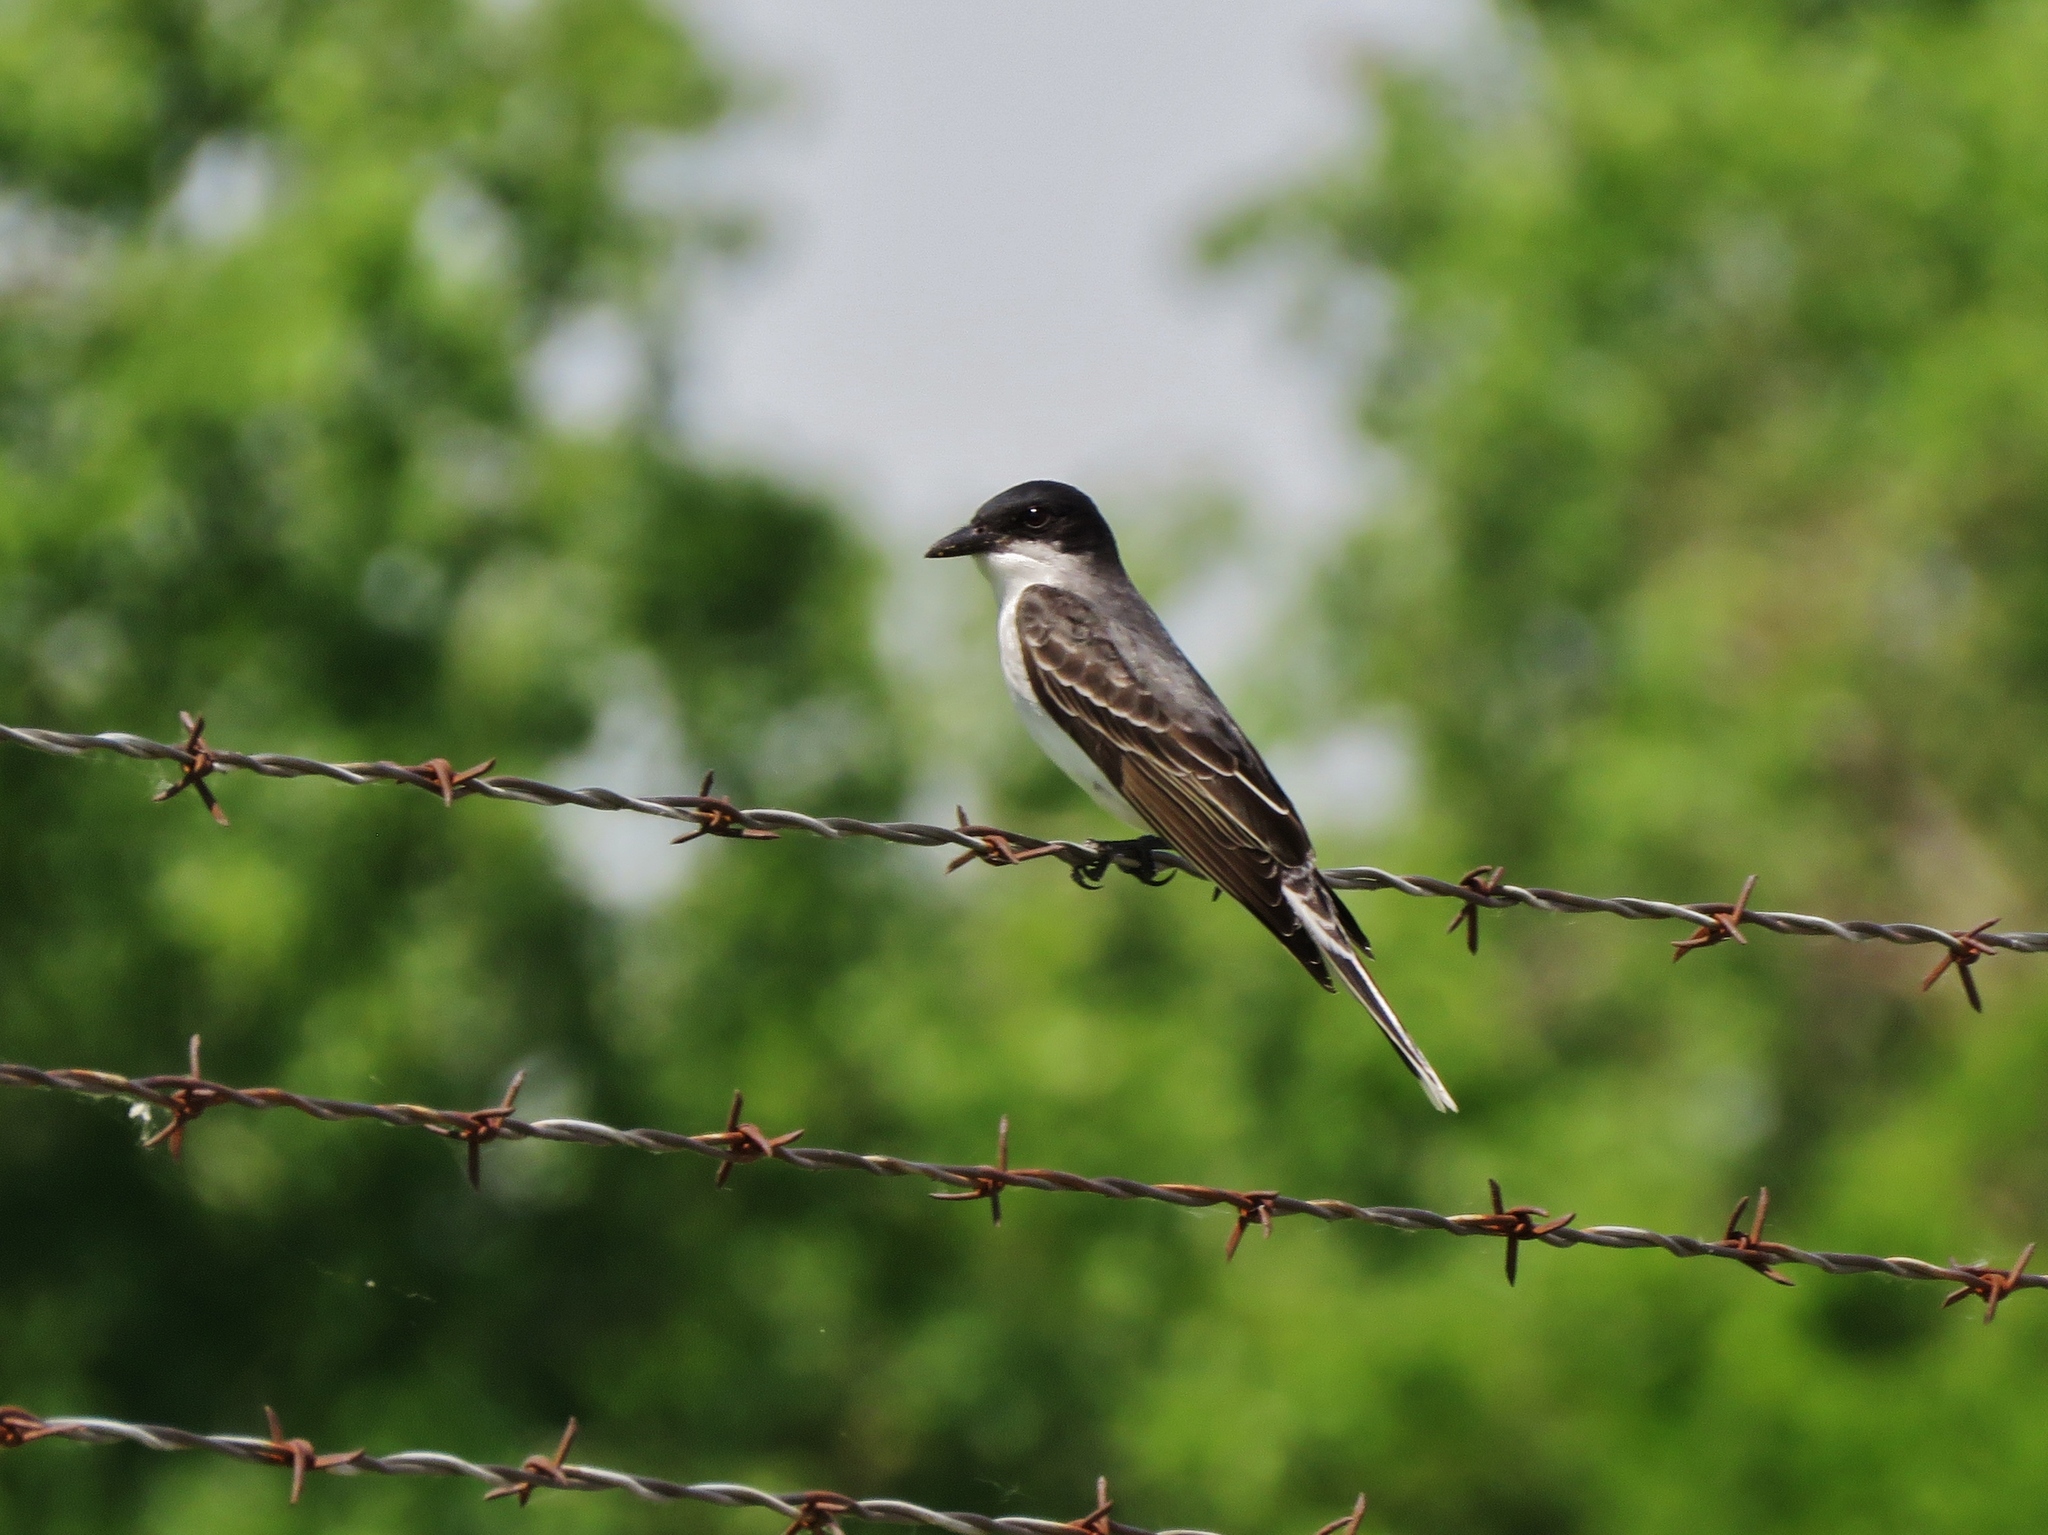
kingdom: Animalia
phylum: Chordata
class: Aves
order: Passeriformes
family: Tyrannidae
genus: Tyrannus
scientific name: Tyrannus tyrannus
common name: Eastern kingbird
